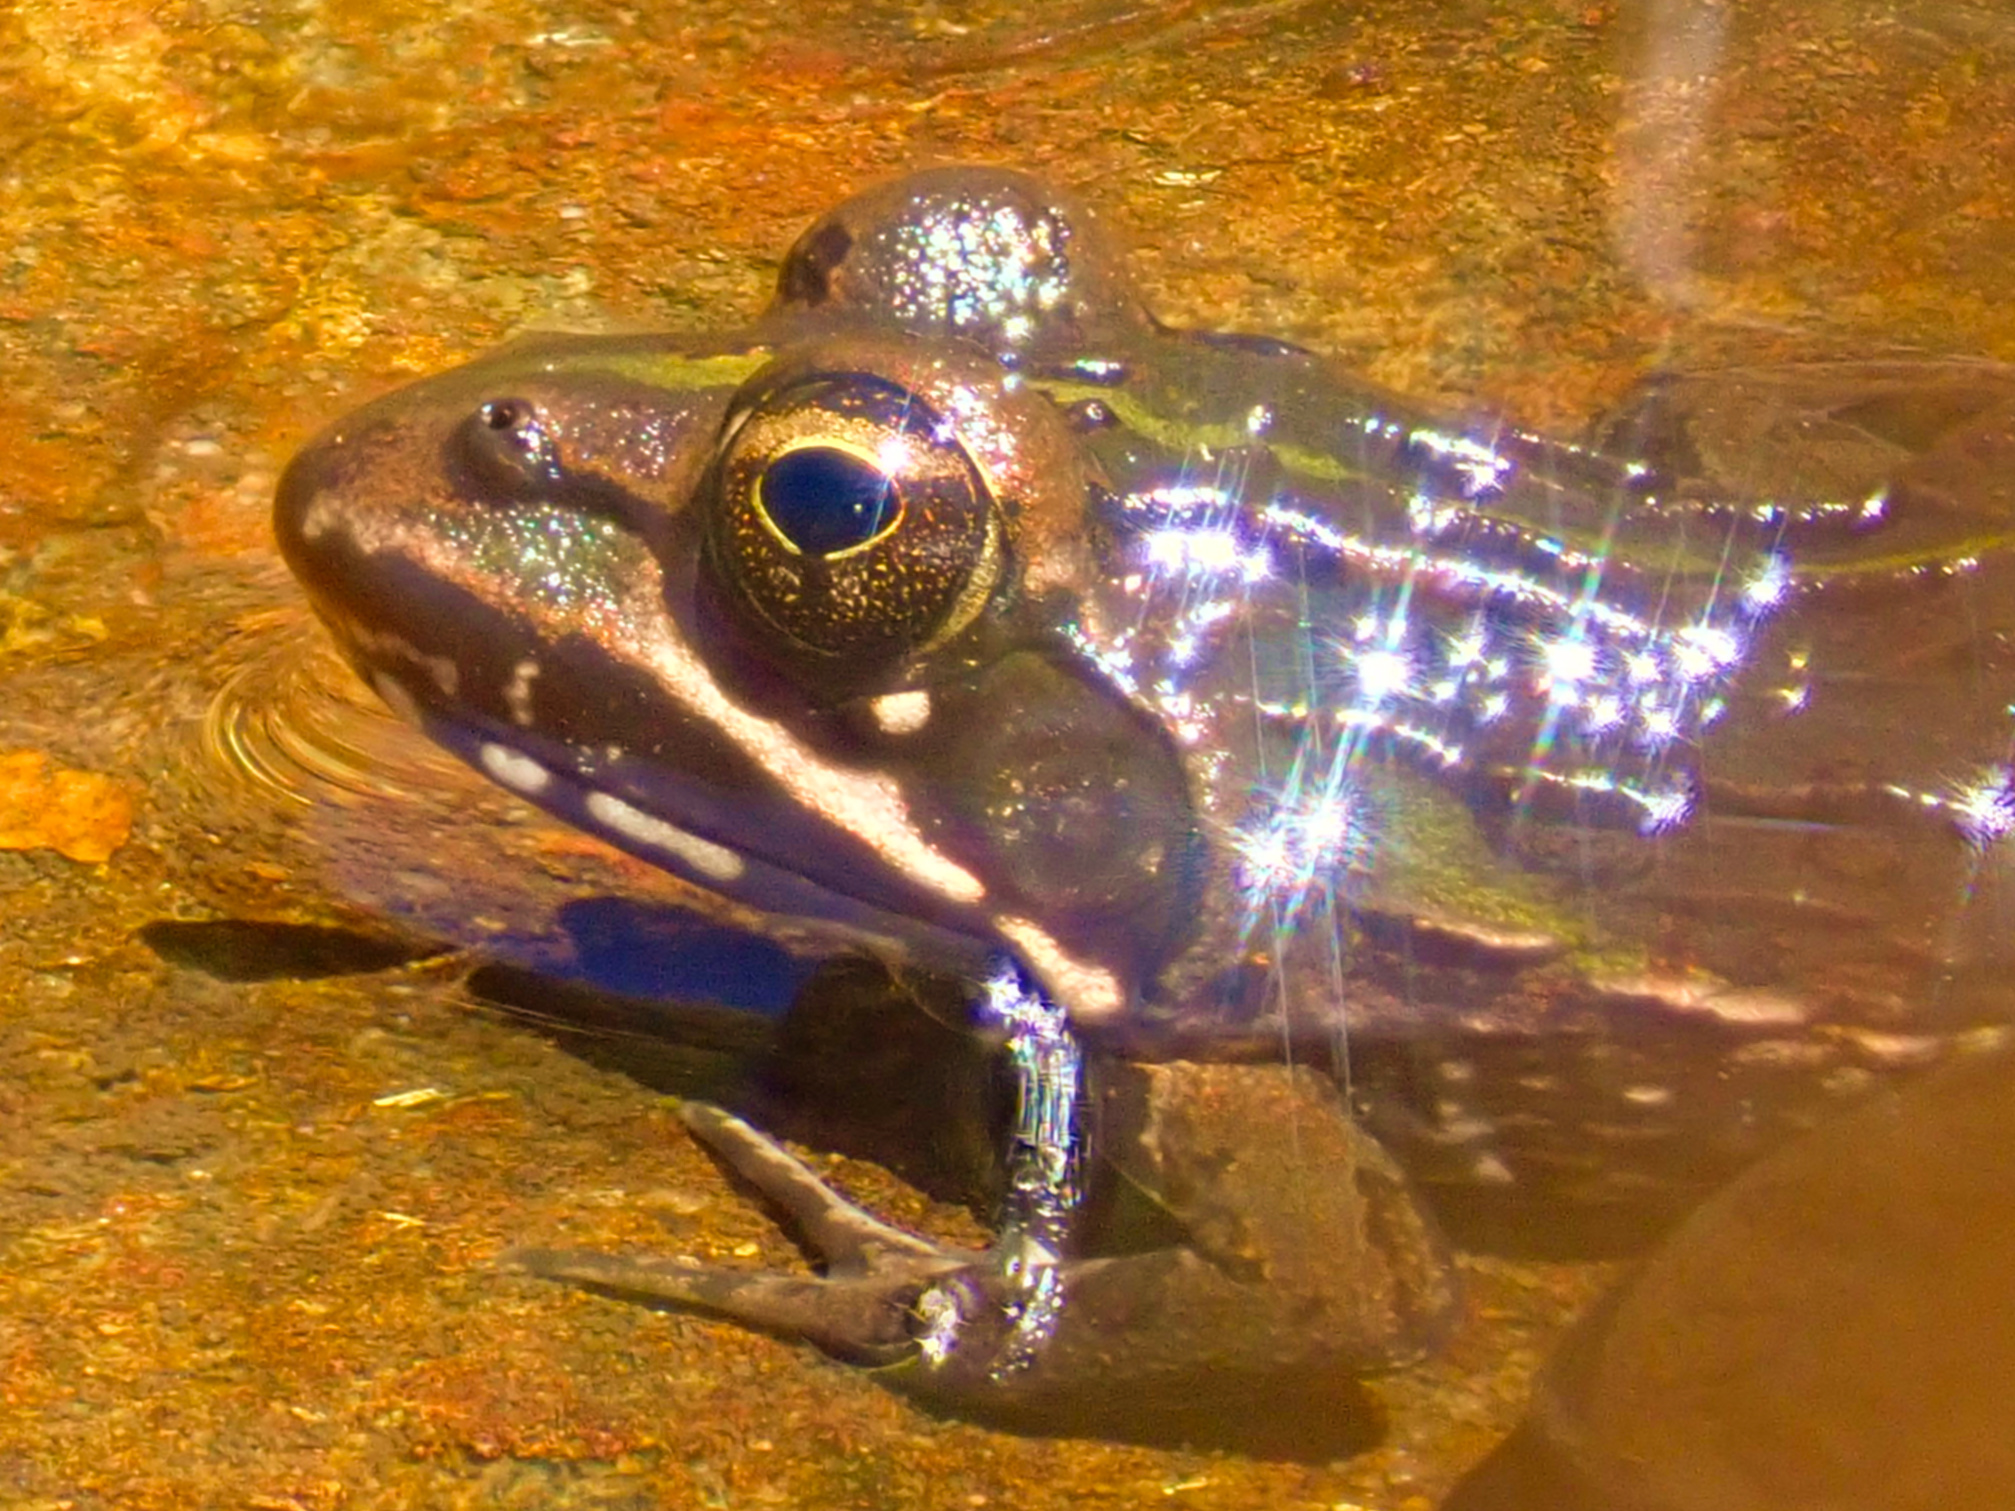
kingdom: Animalia
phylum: Chordata
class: Amphibia
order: Anura
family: Pyxicephalidae
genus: Amietia
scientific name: Amietia delalandii
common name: Delalande's river frog
